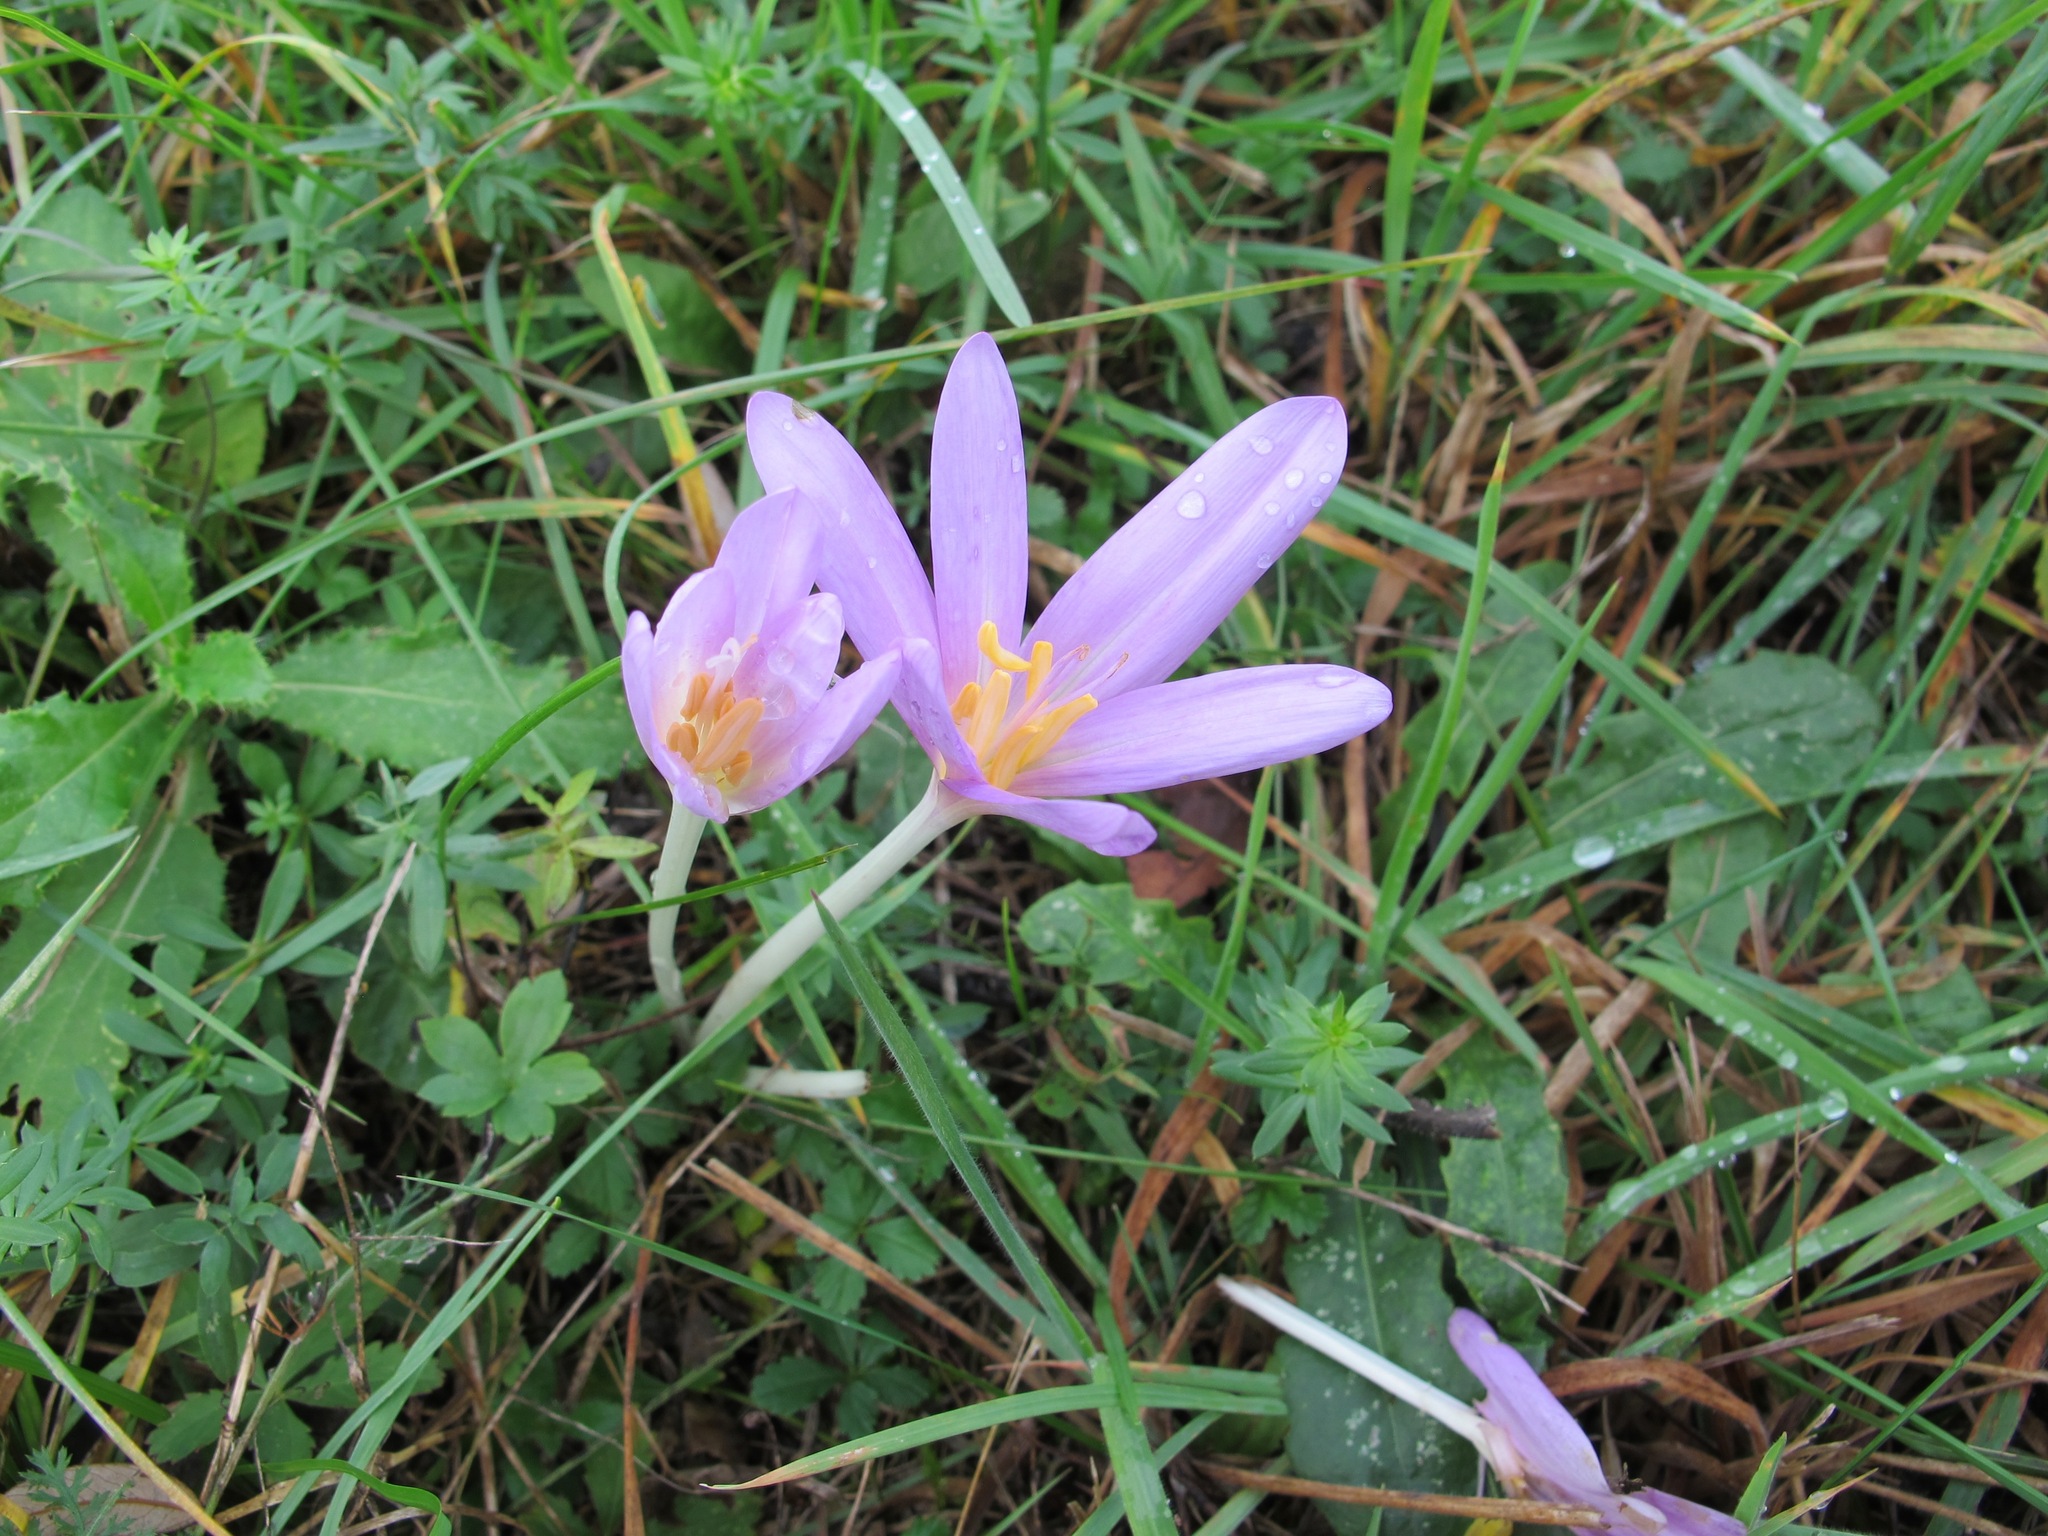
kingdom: Plantae
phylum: Tracheophyta
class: Liliopsida
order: Liliales
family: Colchicaceae
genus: Colchicum
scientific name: Colchicum autumnale
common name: Autumn crocus
